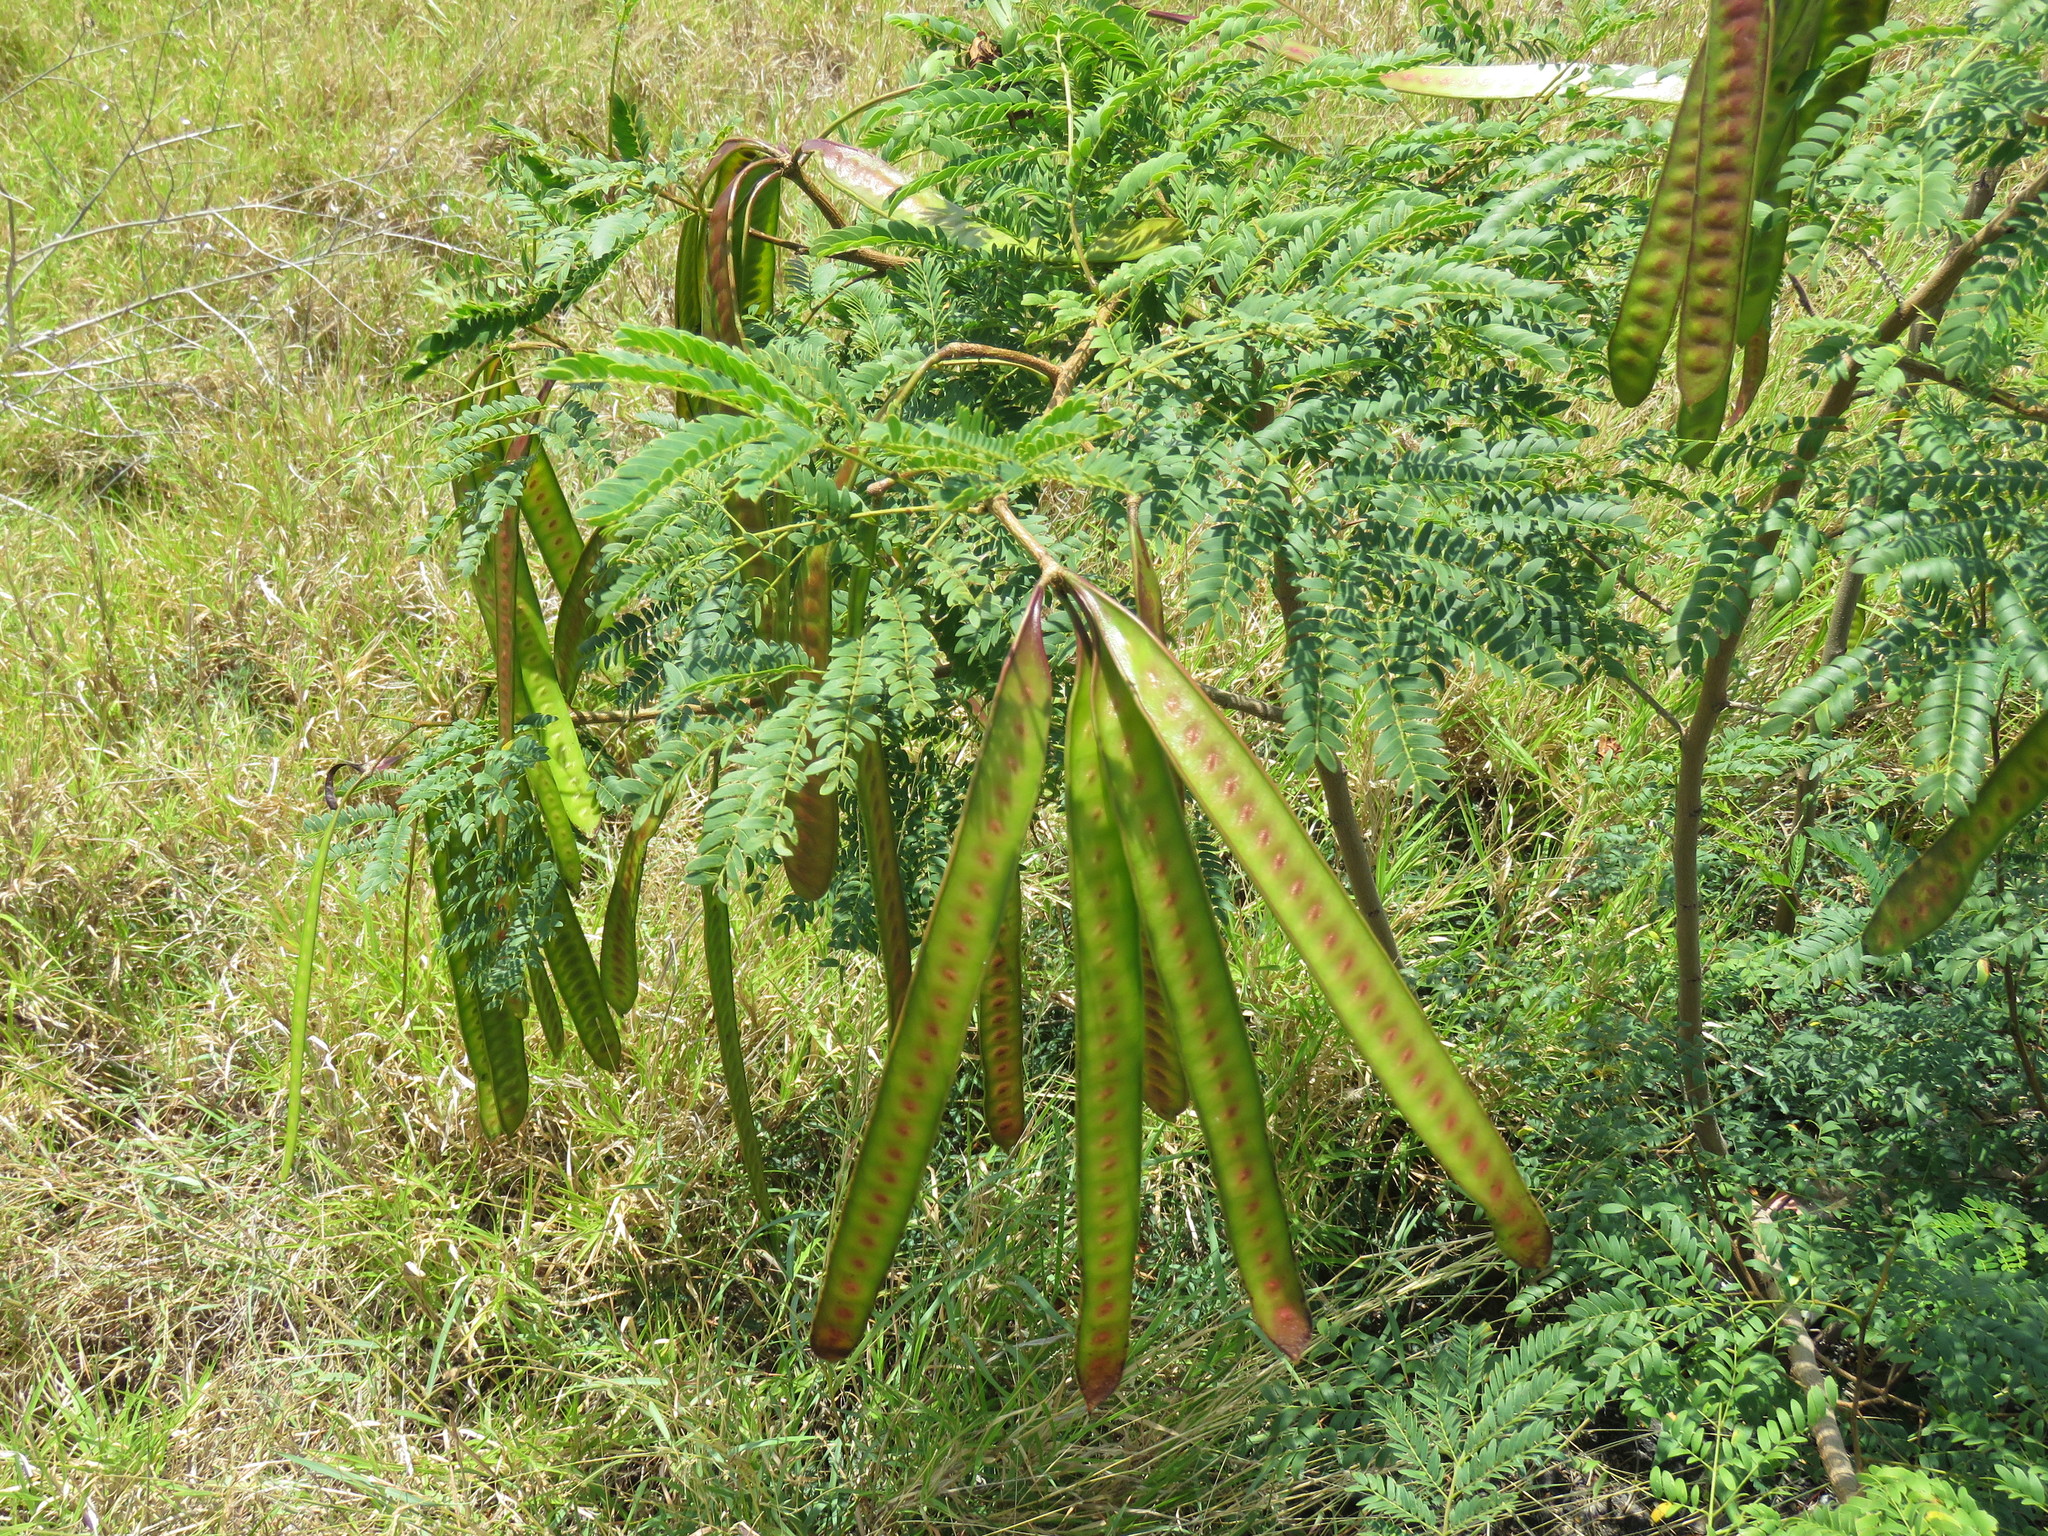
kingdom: Plantae
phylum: Tracheophyta
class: Magnoliopsida
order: Fabales
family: Fabaceae
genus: Leucaena
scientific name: Leucaena leucocephala
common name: White leadtree
